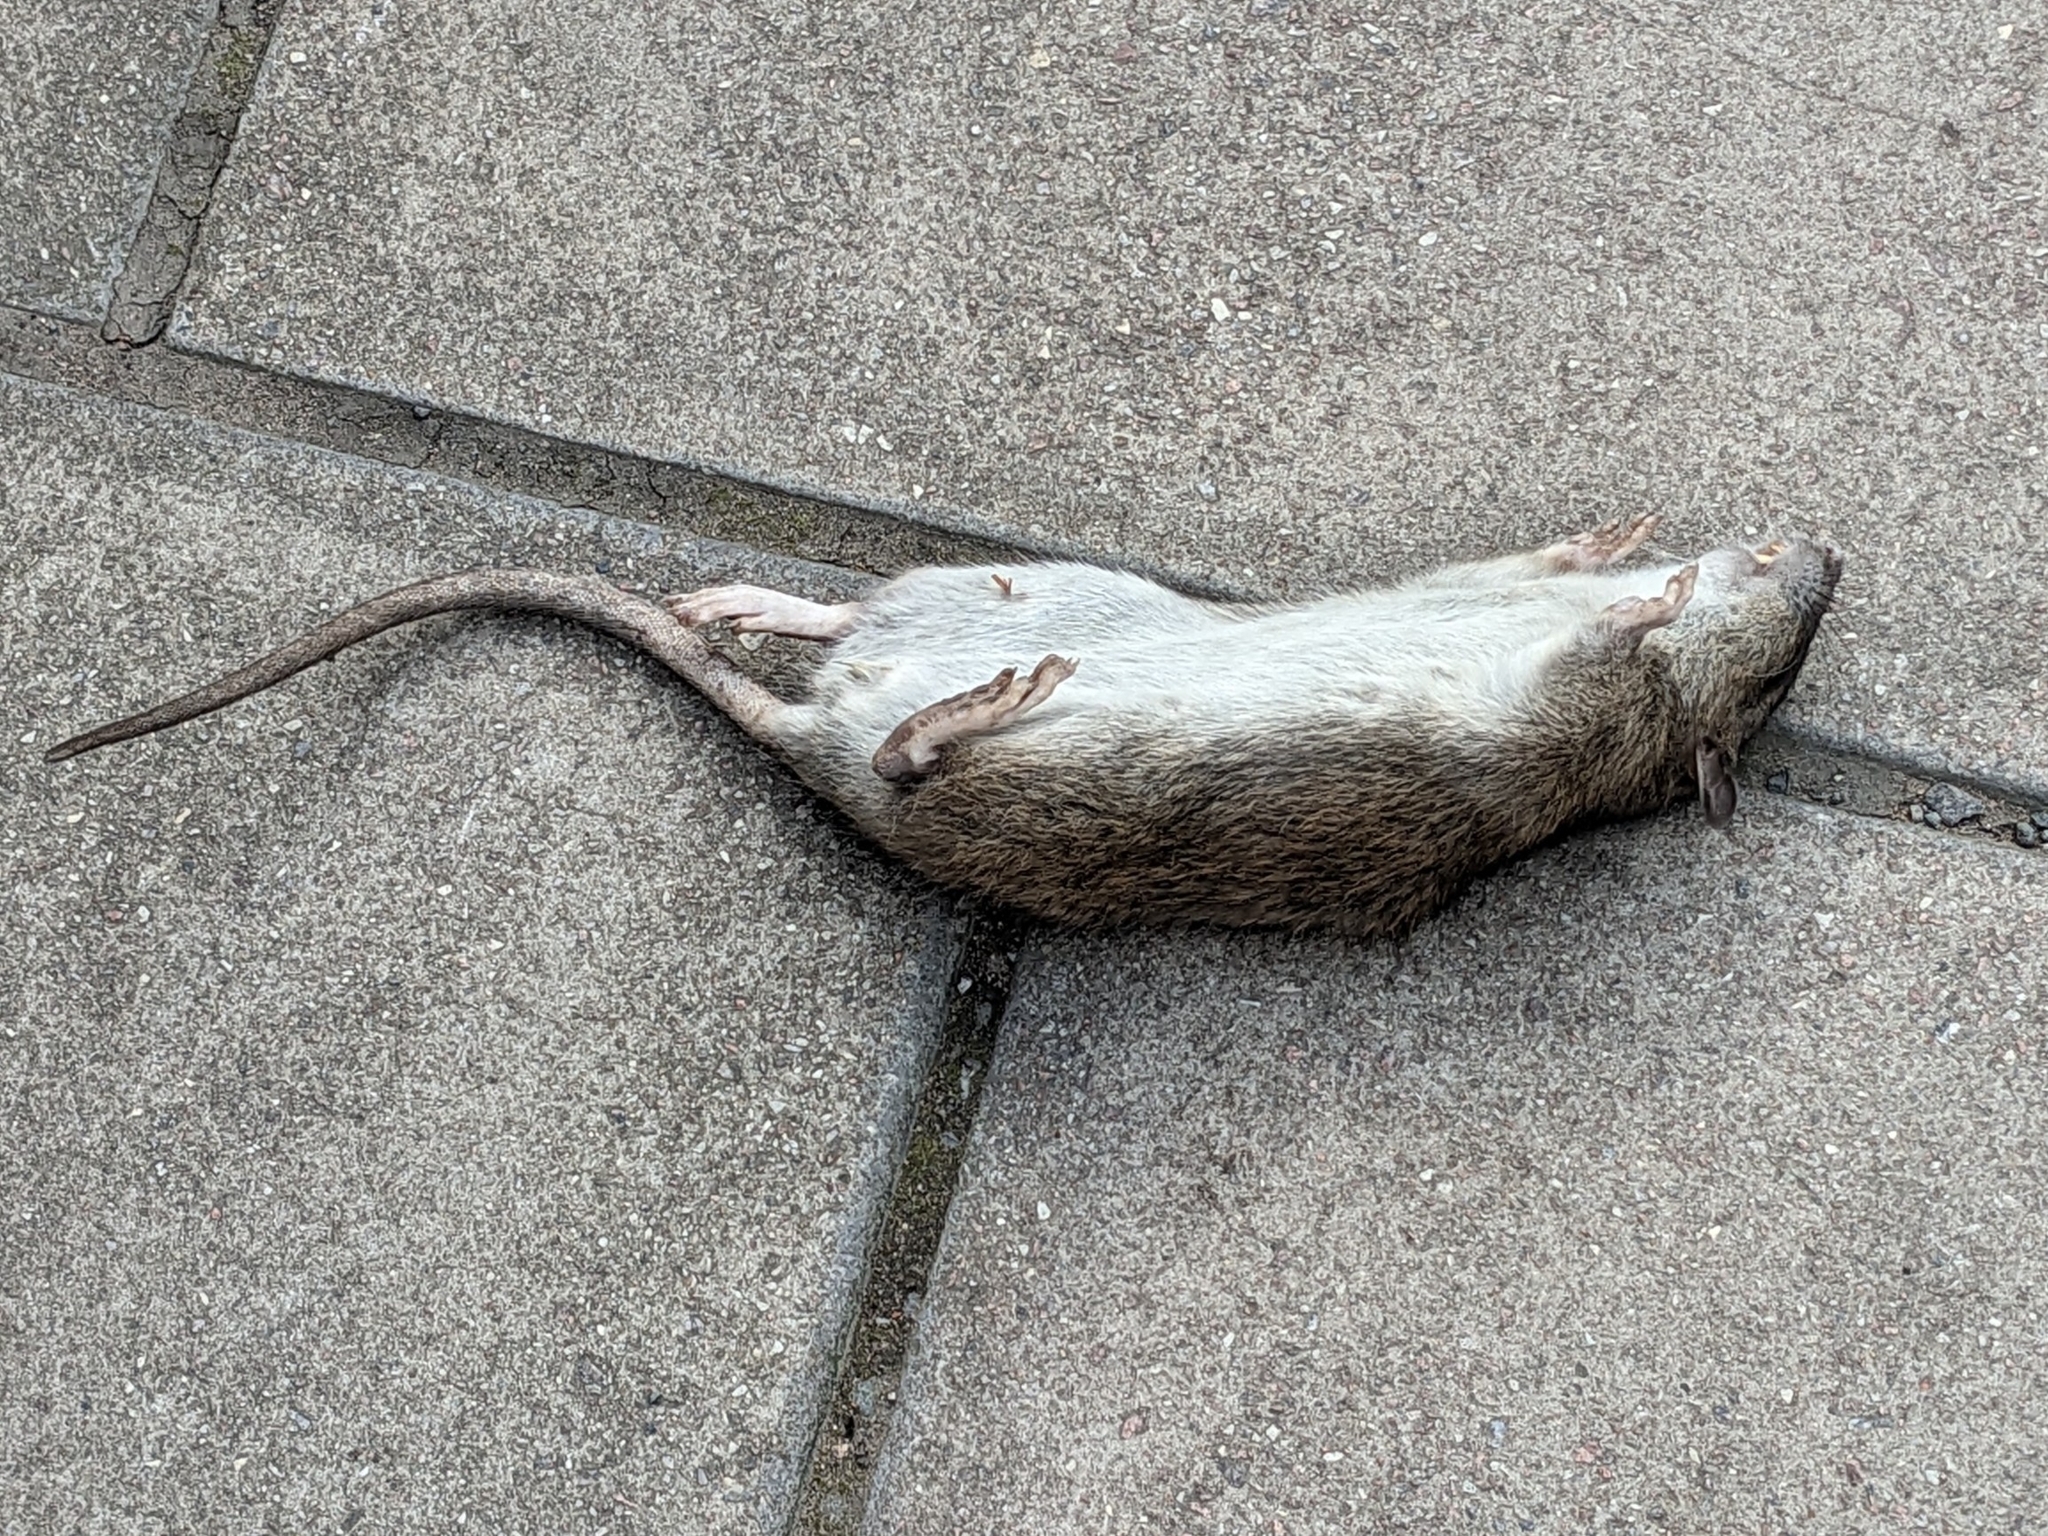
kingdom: Animalia
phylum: Chordata
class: Mammalia
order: Rodentia
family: Muridae
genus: Rattus
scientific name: Rattus norvegicus
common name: Brown rat
